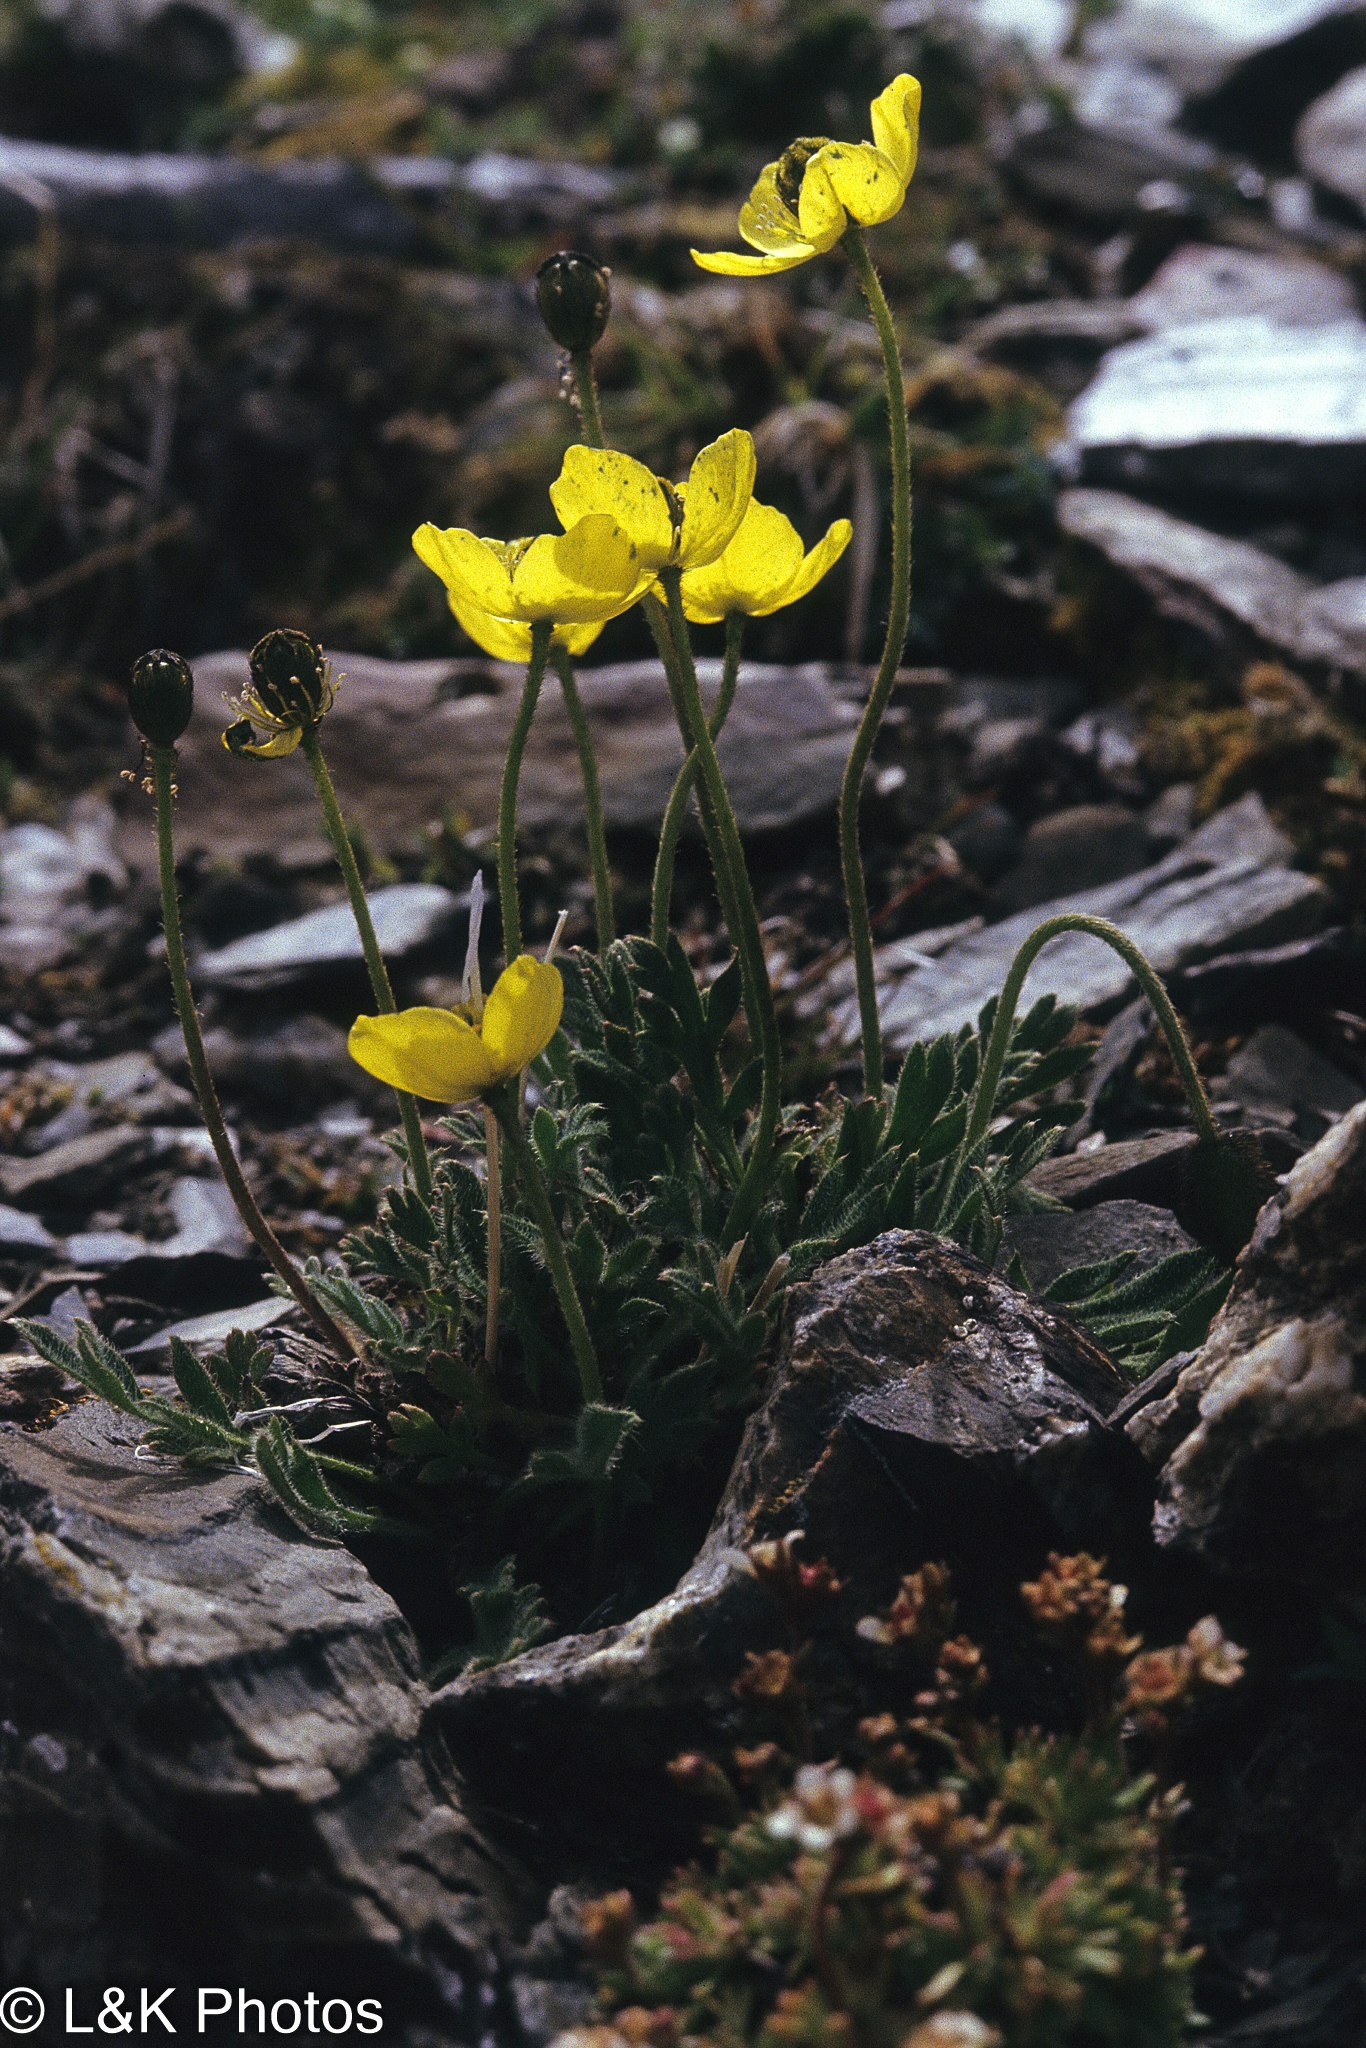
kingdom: Plantae
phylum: Tracheophyta
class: Magnoliopsida
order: Ranunculales
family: Papaveraceae
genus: Papaver
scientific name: Papaver radicatum
